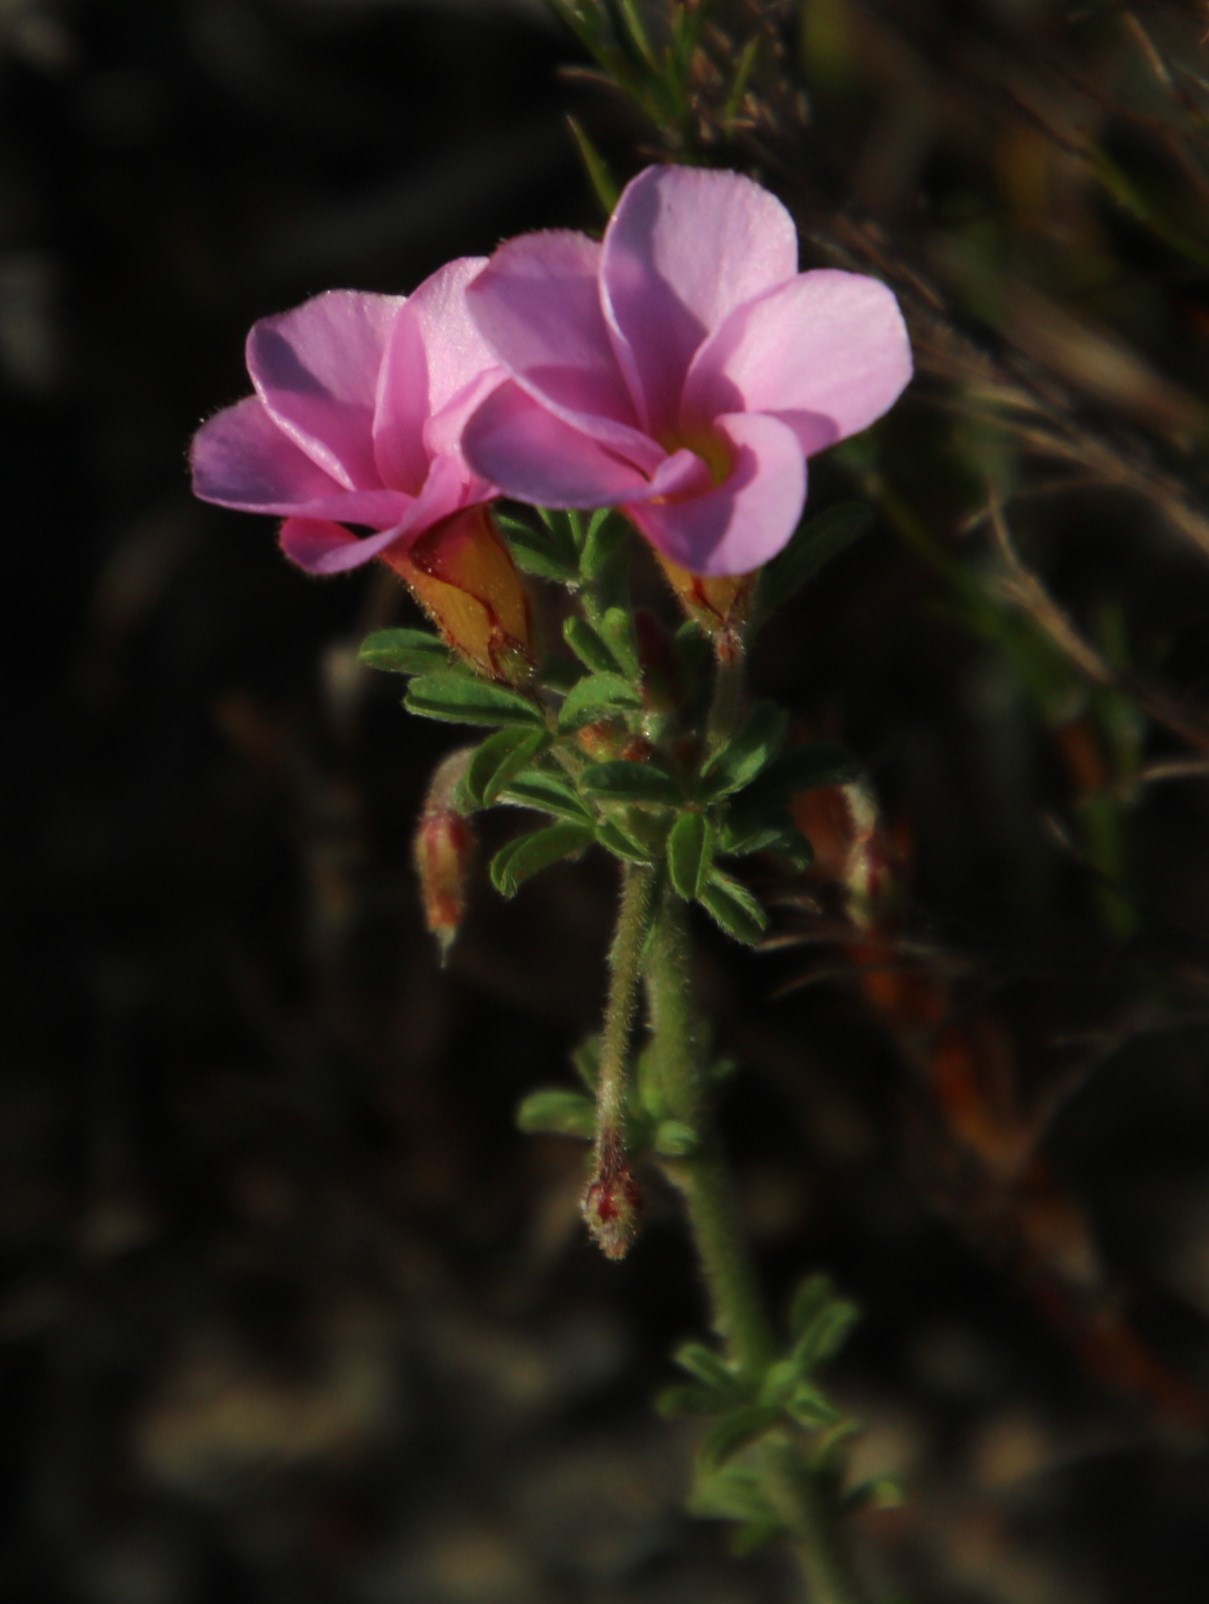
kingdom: Plantae
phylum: Tracheophyta
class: Magnoliopsida
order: Oxalidales
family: Oxalidaceae
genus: Oxalis
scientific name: Oxalis multicaulis
